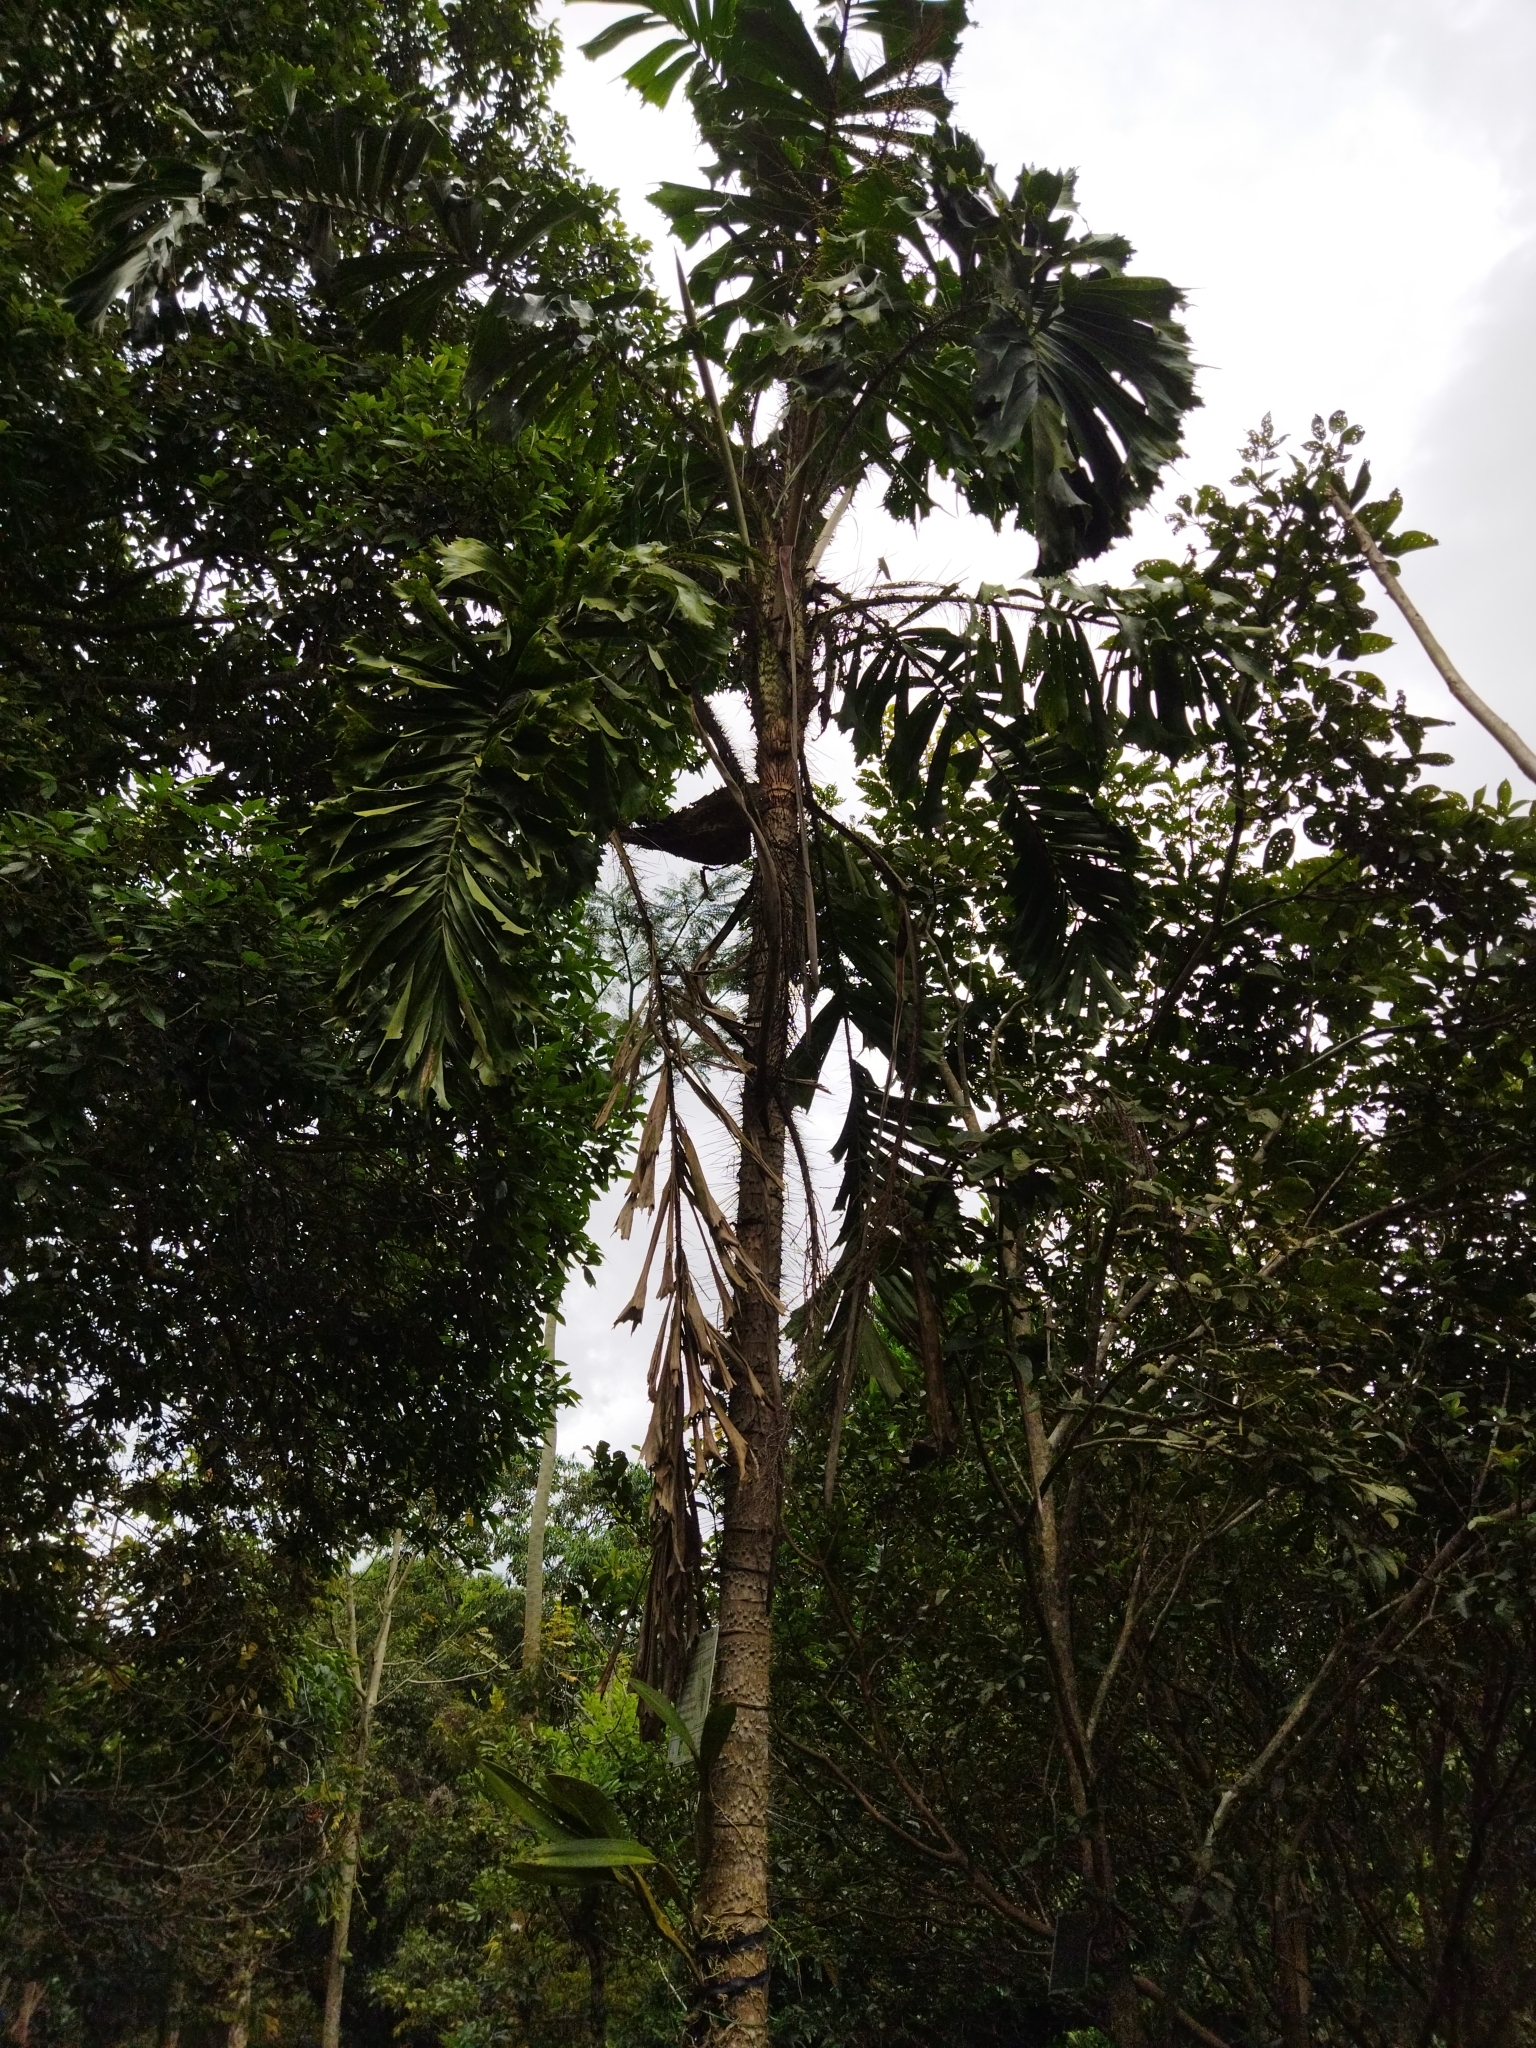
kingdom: Plantae
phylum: Tracheophyta
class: Liliopsida
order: Arecales
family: Arecaceae
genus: Aiphanes
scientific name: Aiphanes horrida
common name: Ruffle palm
